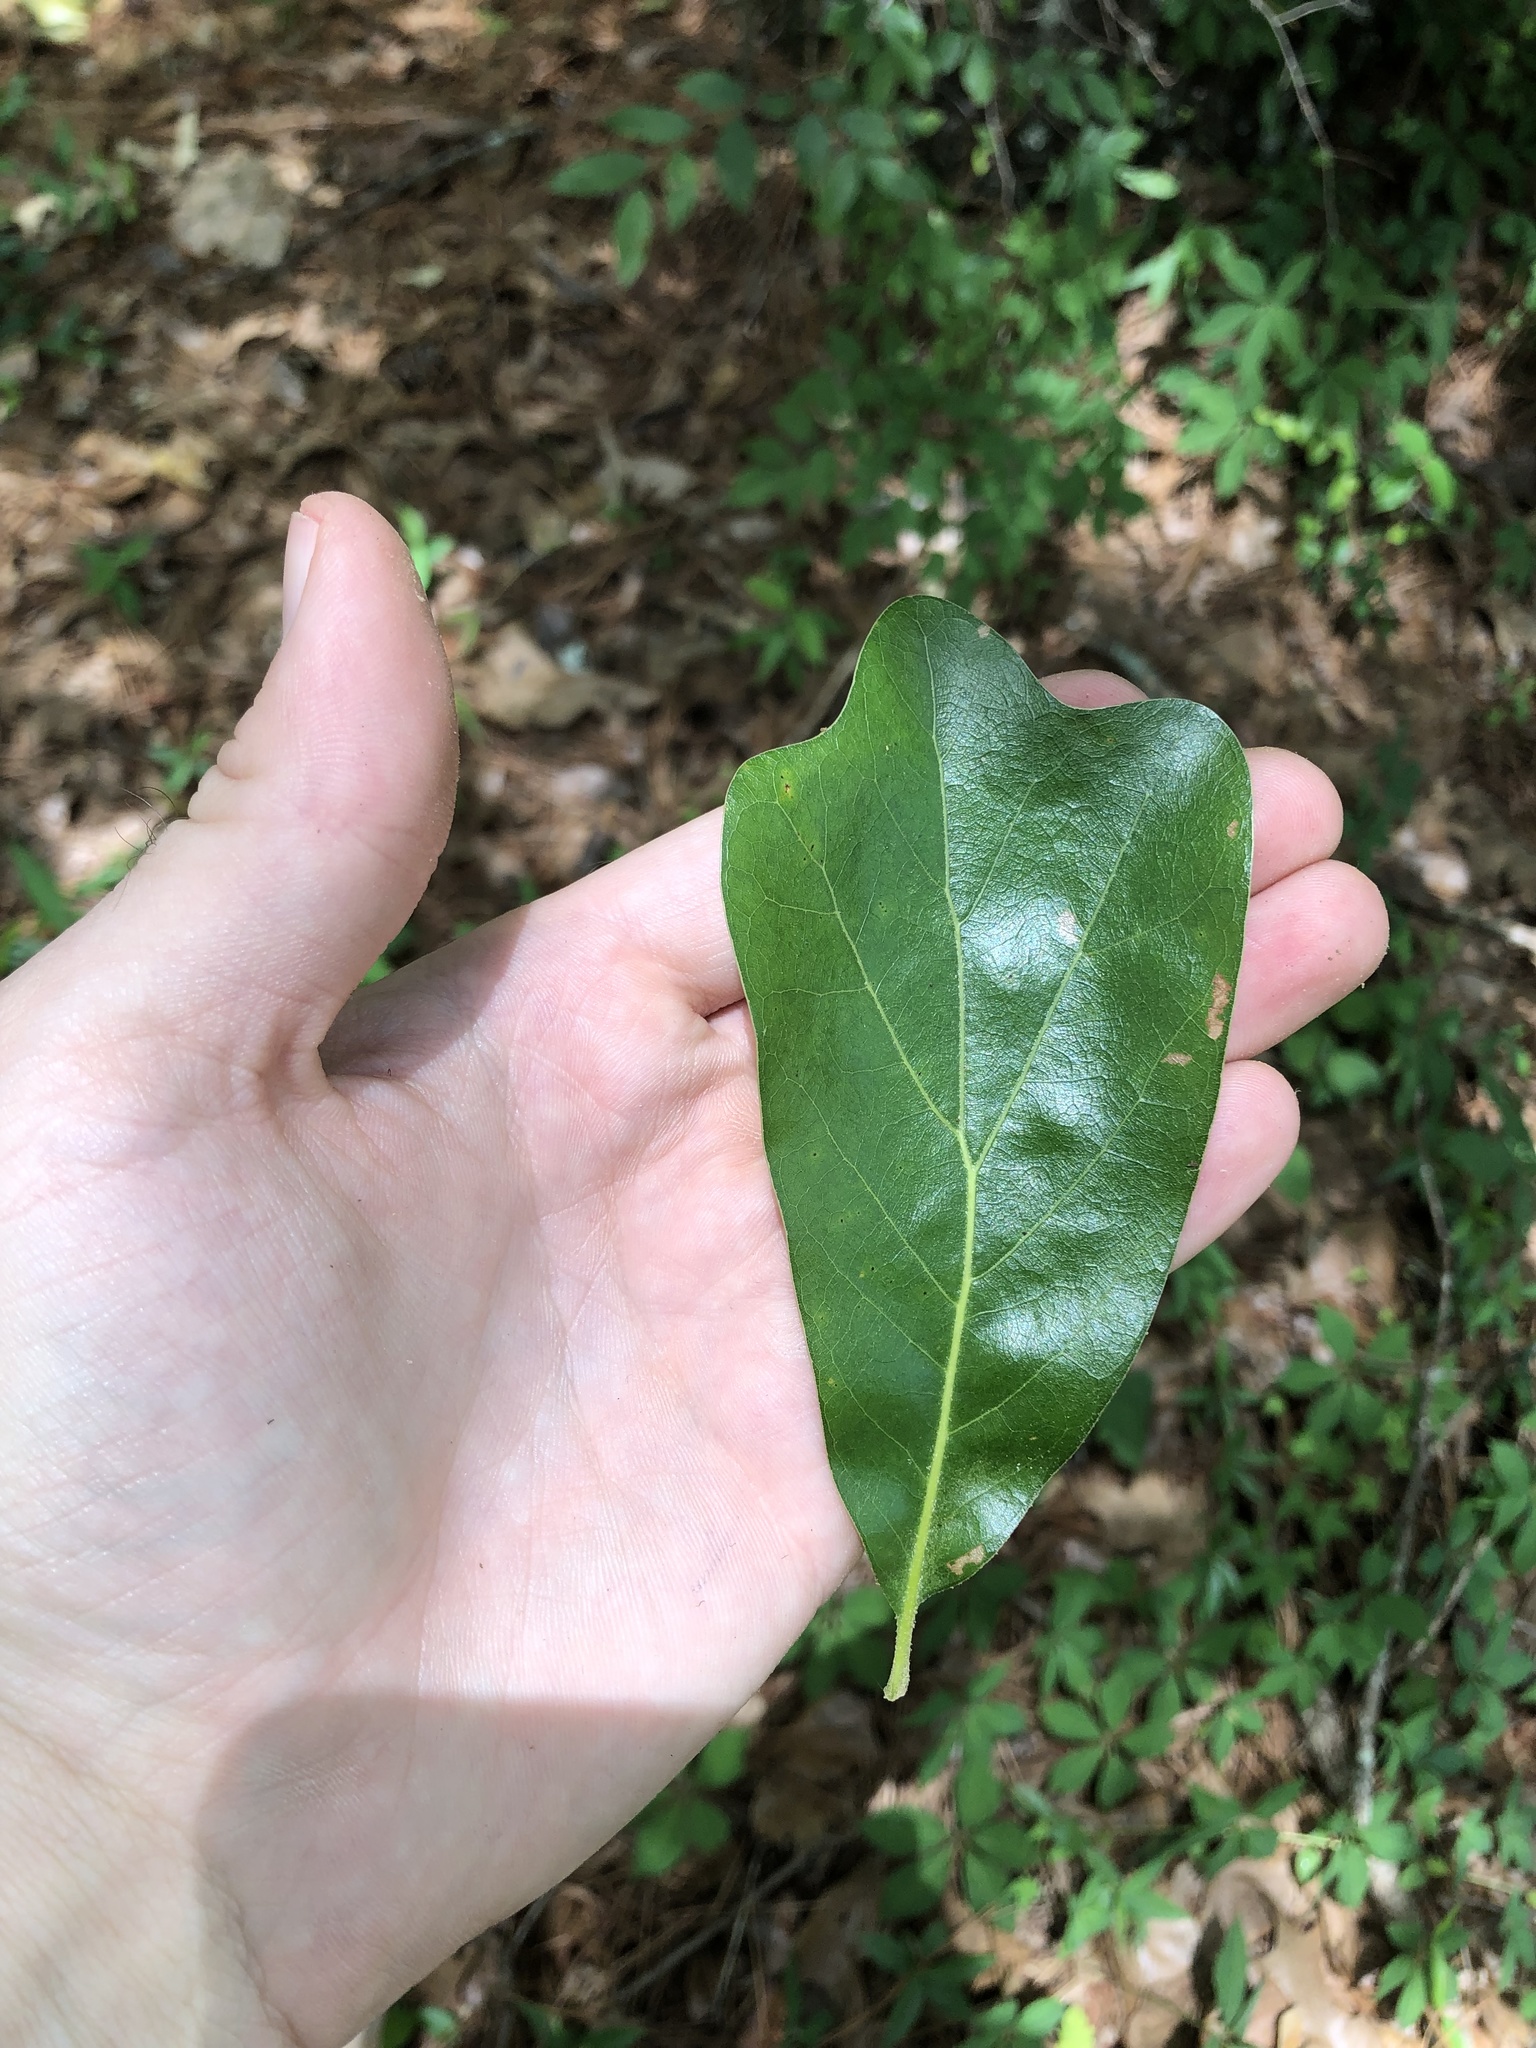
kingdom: Plantae
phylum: Tracheophyta
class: Magnoliopsida
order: Fagales
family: Fagaceae
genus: Quercus
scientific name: Quercus arkansana
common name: Arkansas oak
